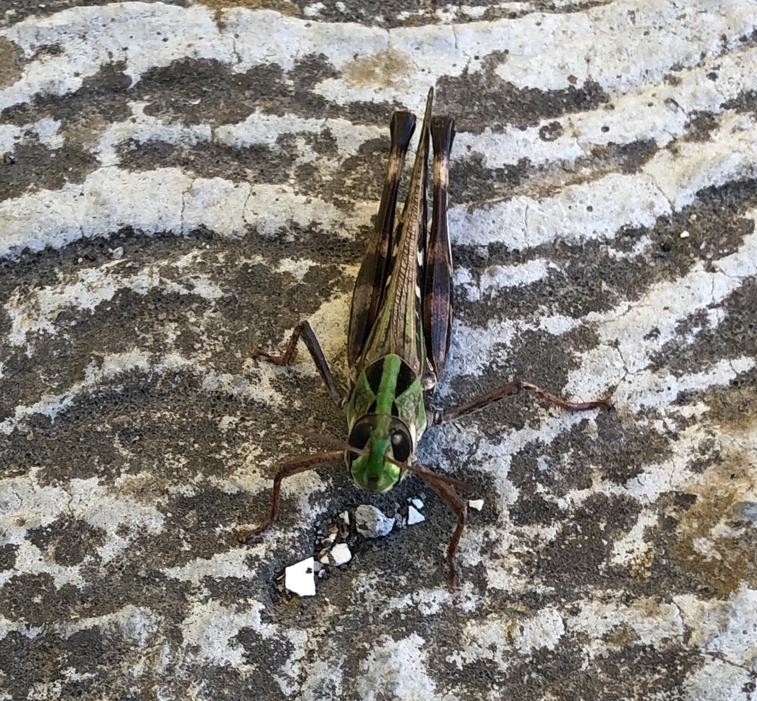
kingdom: Animalia
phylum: Arthropoda
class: Insecta
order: Orthoptera
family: Acrididae
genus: Rhammatocerus
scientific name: Rhammatocerus viatorius
